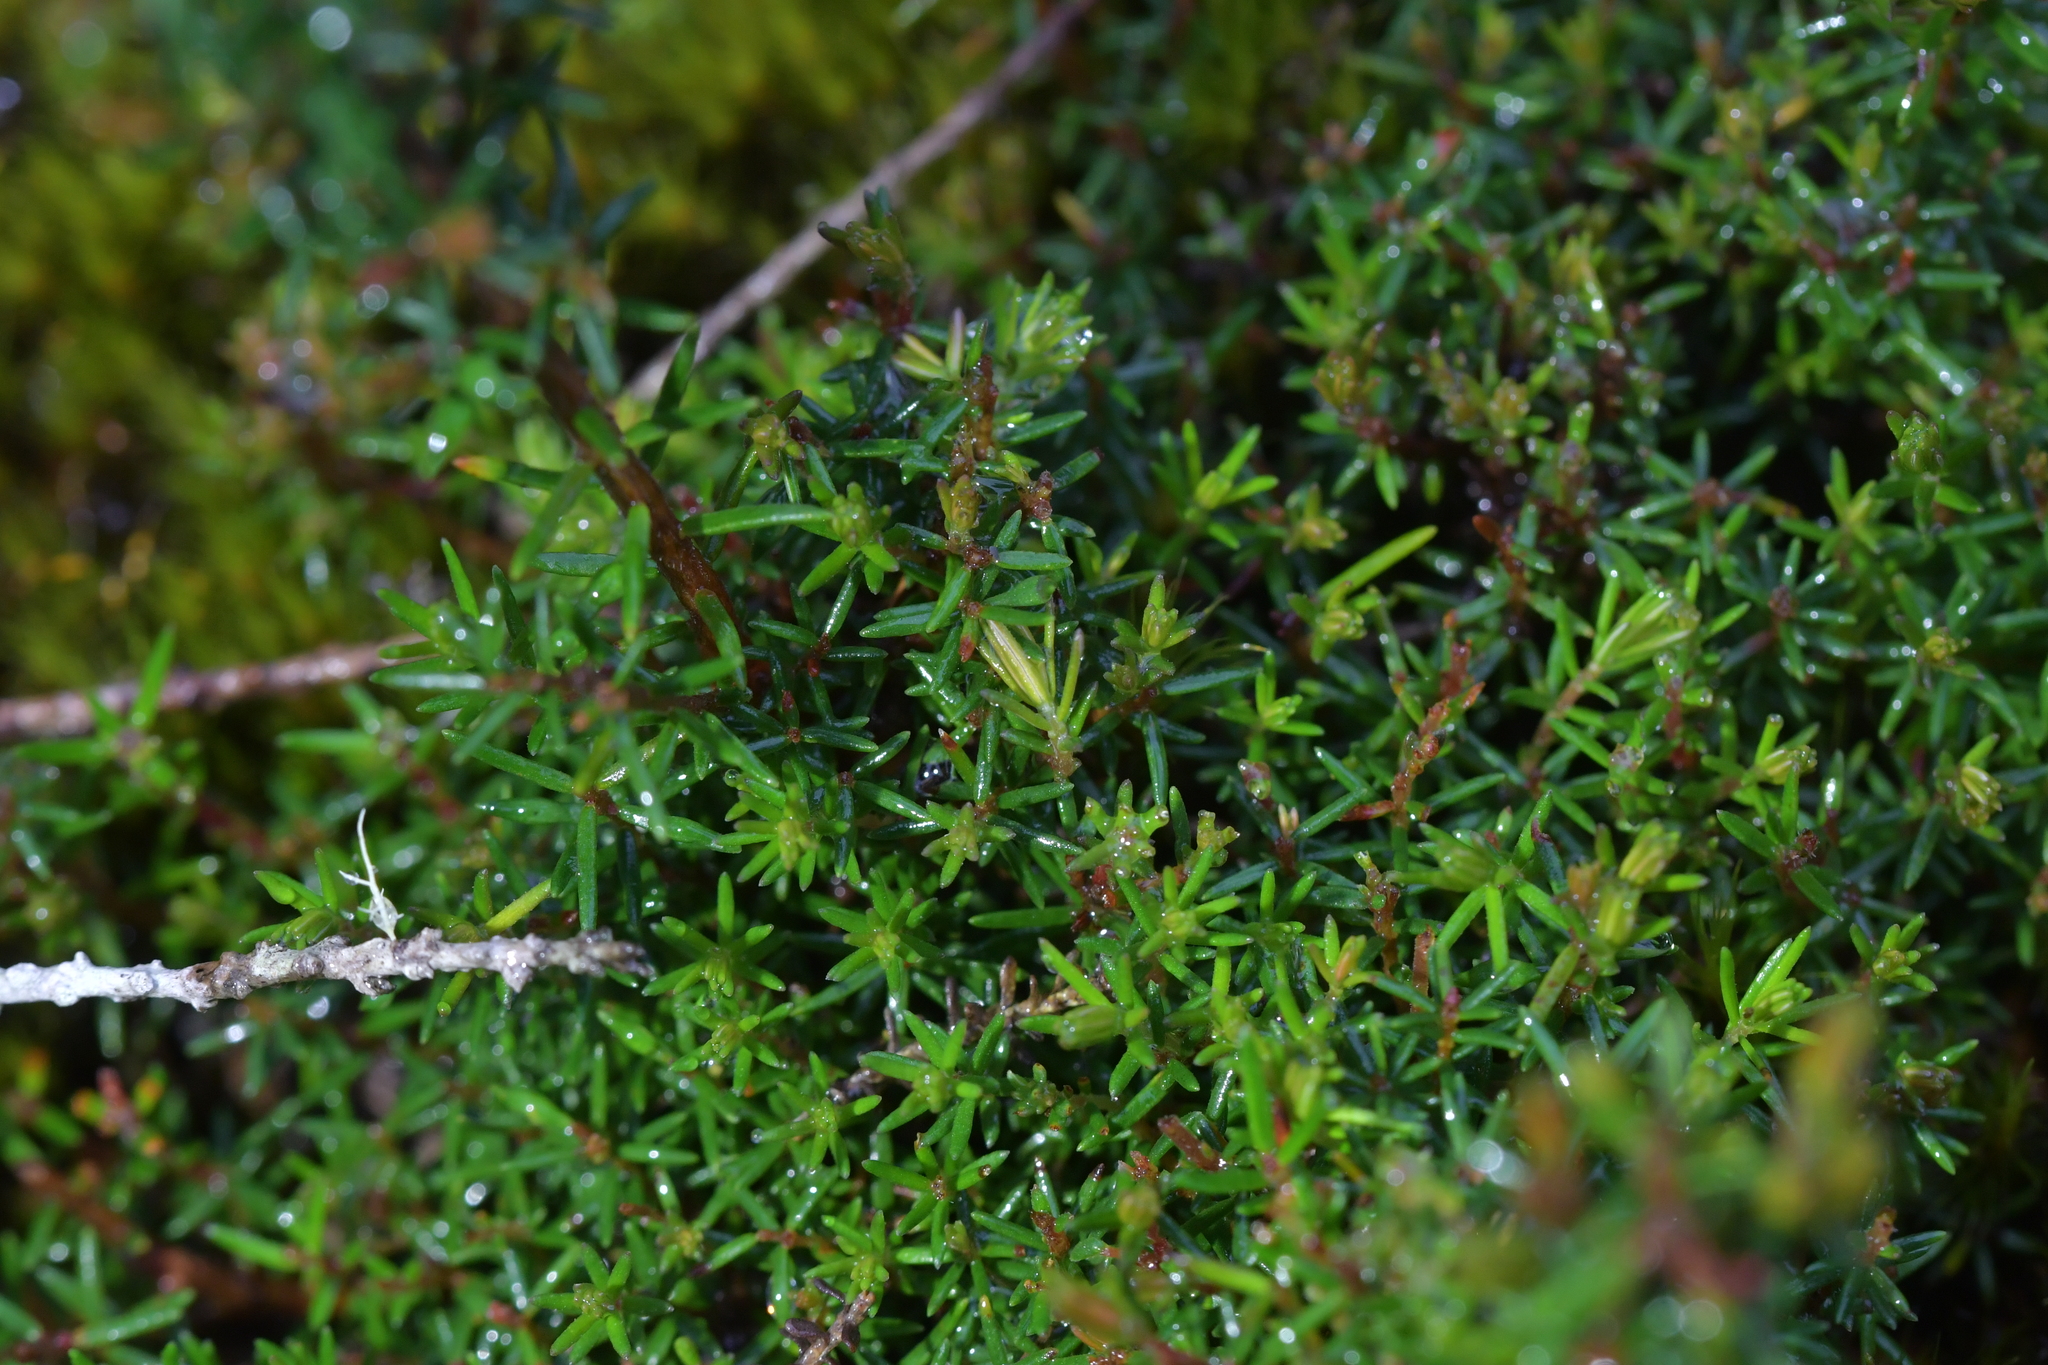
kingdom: Plantae
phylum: Tracheophyta
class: Magnoliopsida
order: Ericales
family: Ericaceae
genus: Androstoma
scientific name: Androstoma empetrifolia
